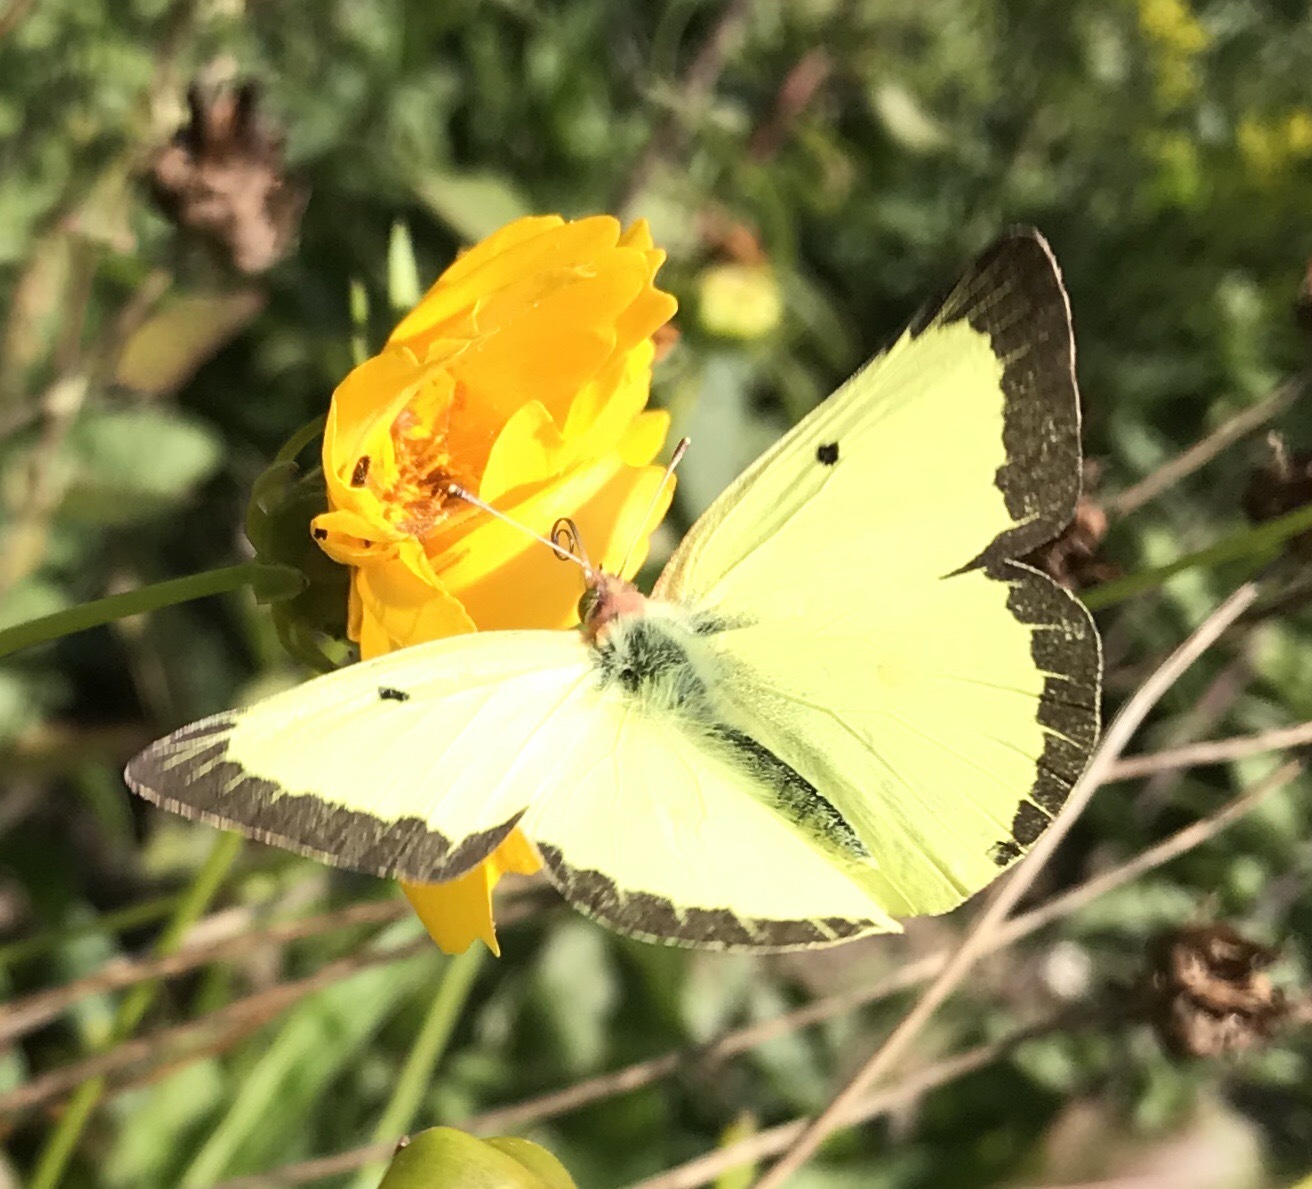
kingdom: Animalia
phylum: Arthropoda
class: Insecta
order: Lepidoptera
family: Pieridae
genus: Colias
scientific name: Colias philodice
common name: Clouded sulphur
